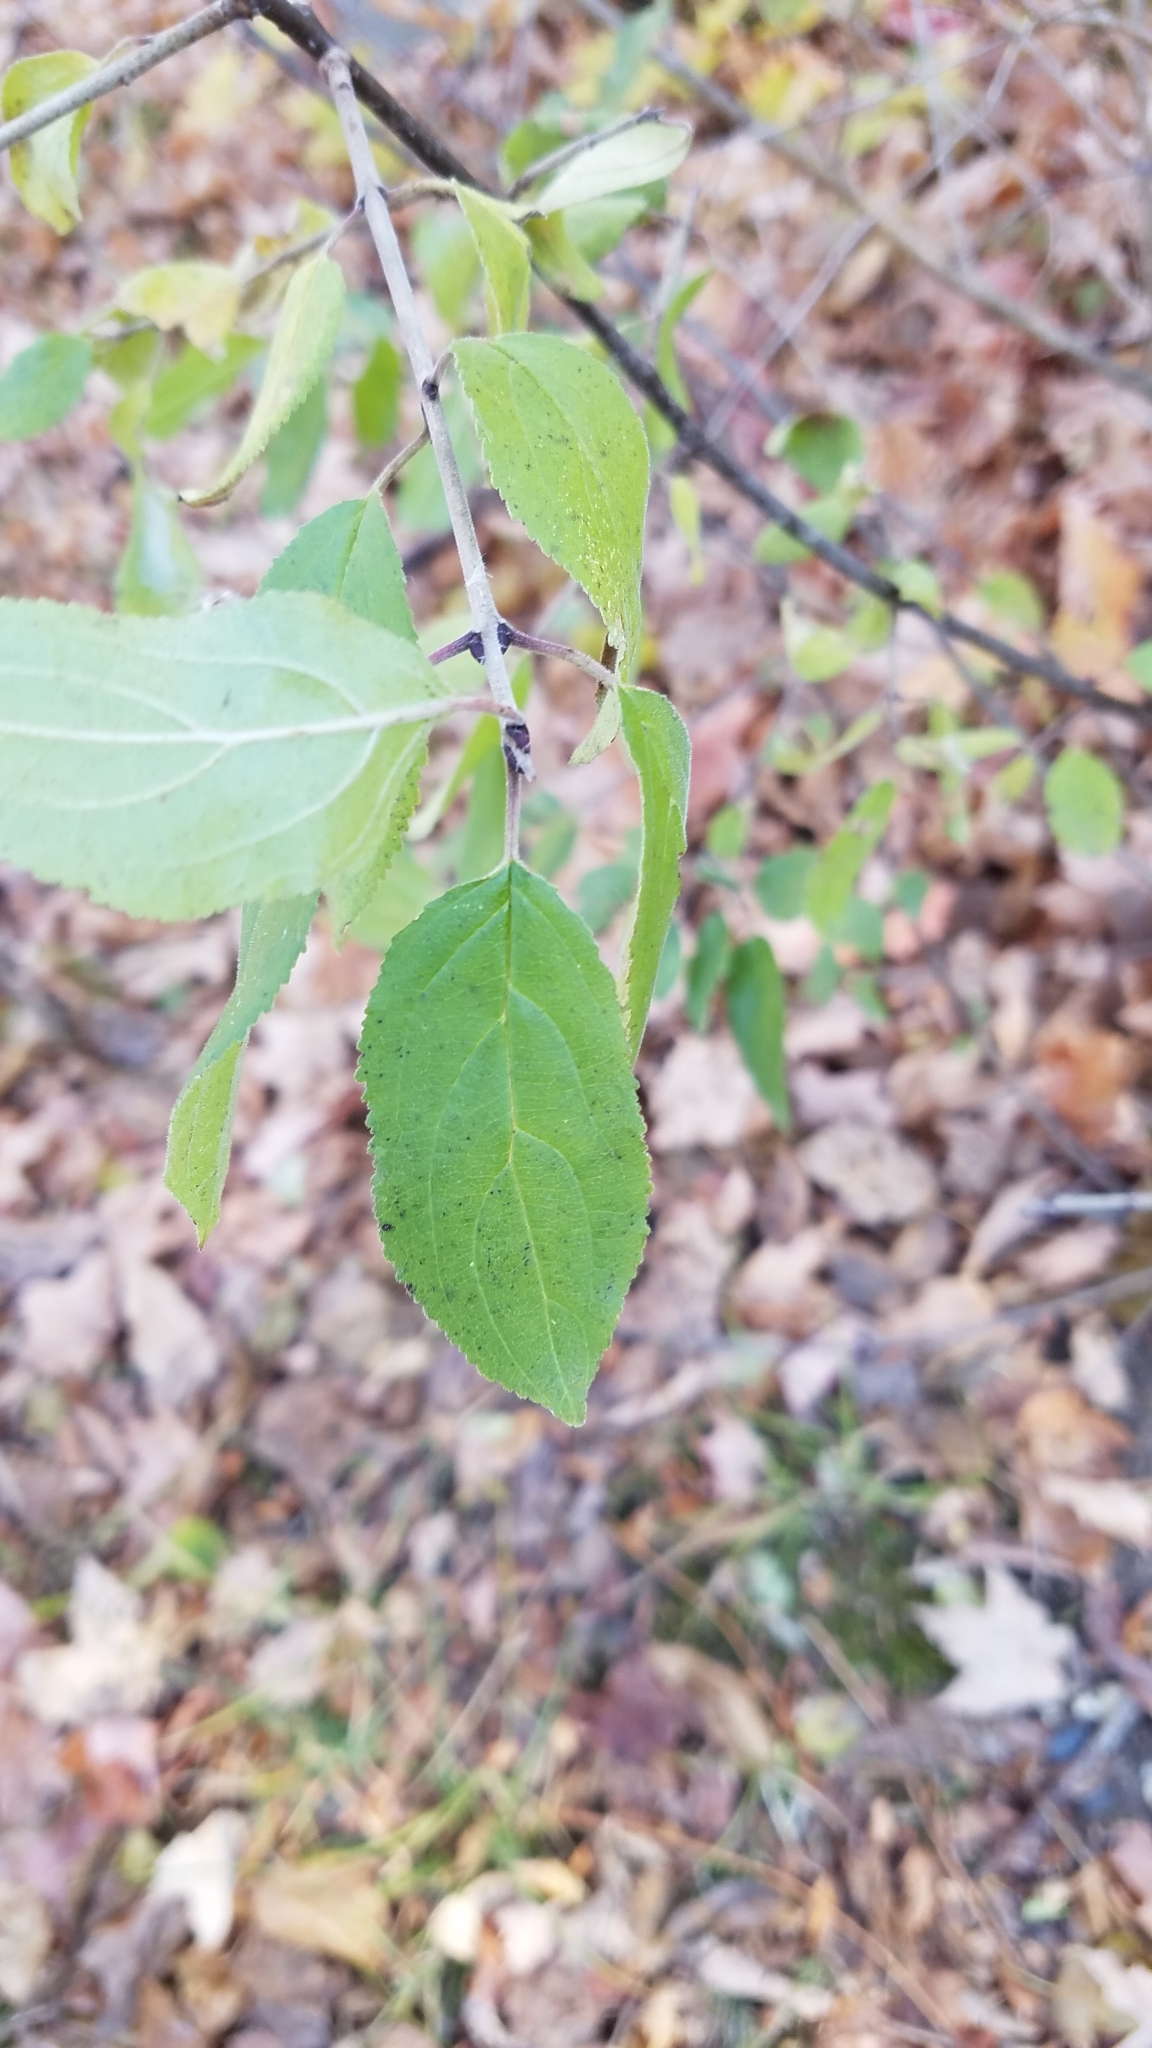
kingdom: Plantae
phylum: Tracheophyta
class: Magnoliopsida
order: Rosales
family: Rhamnaceae
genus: Rhamnus
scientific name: Rhamnus cathartica
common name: Common buckthorn
